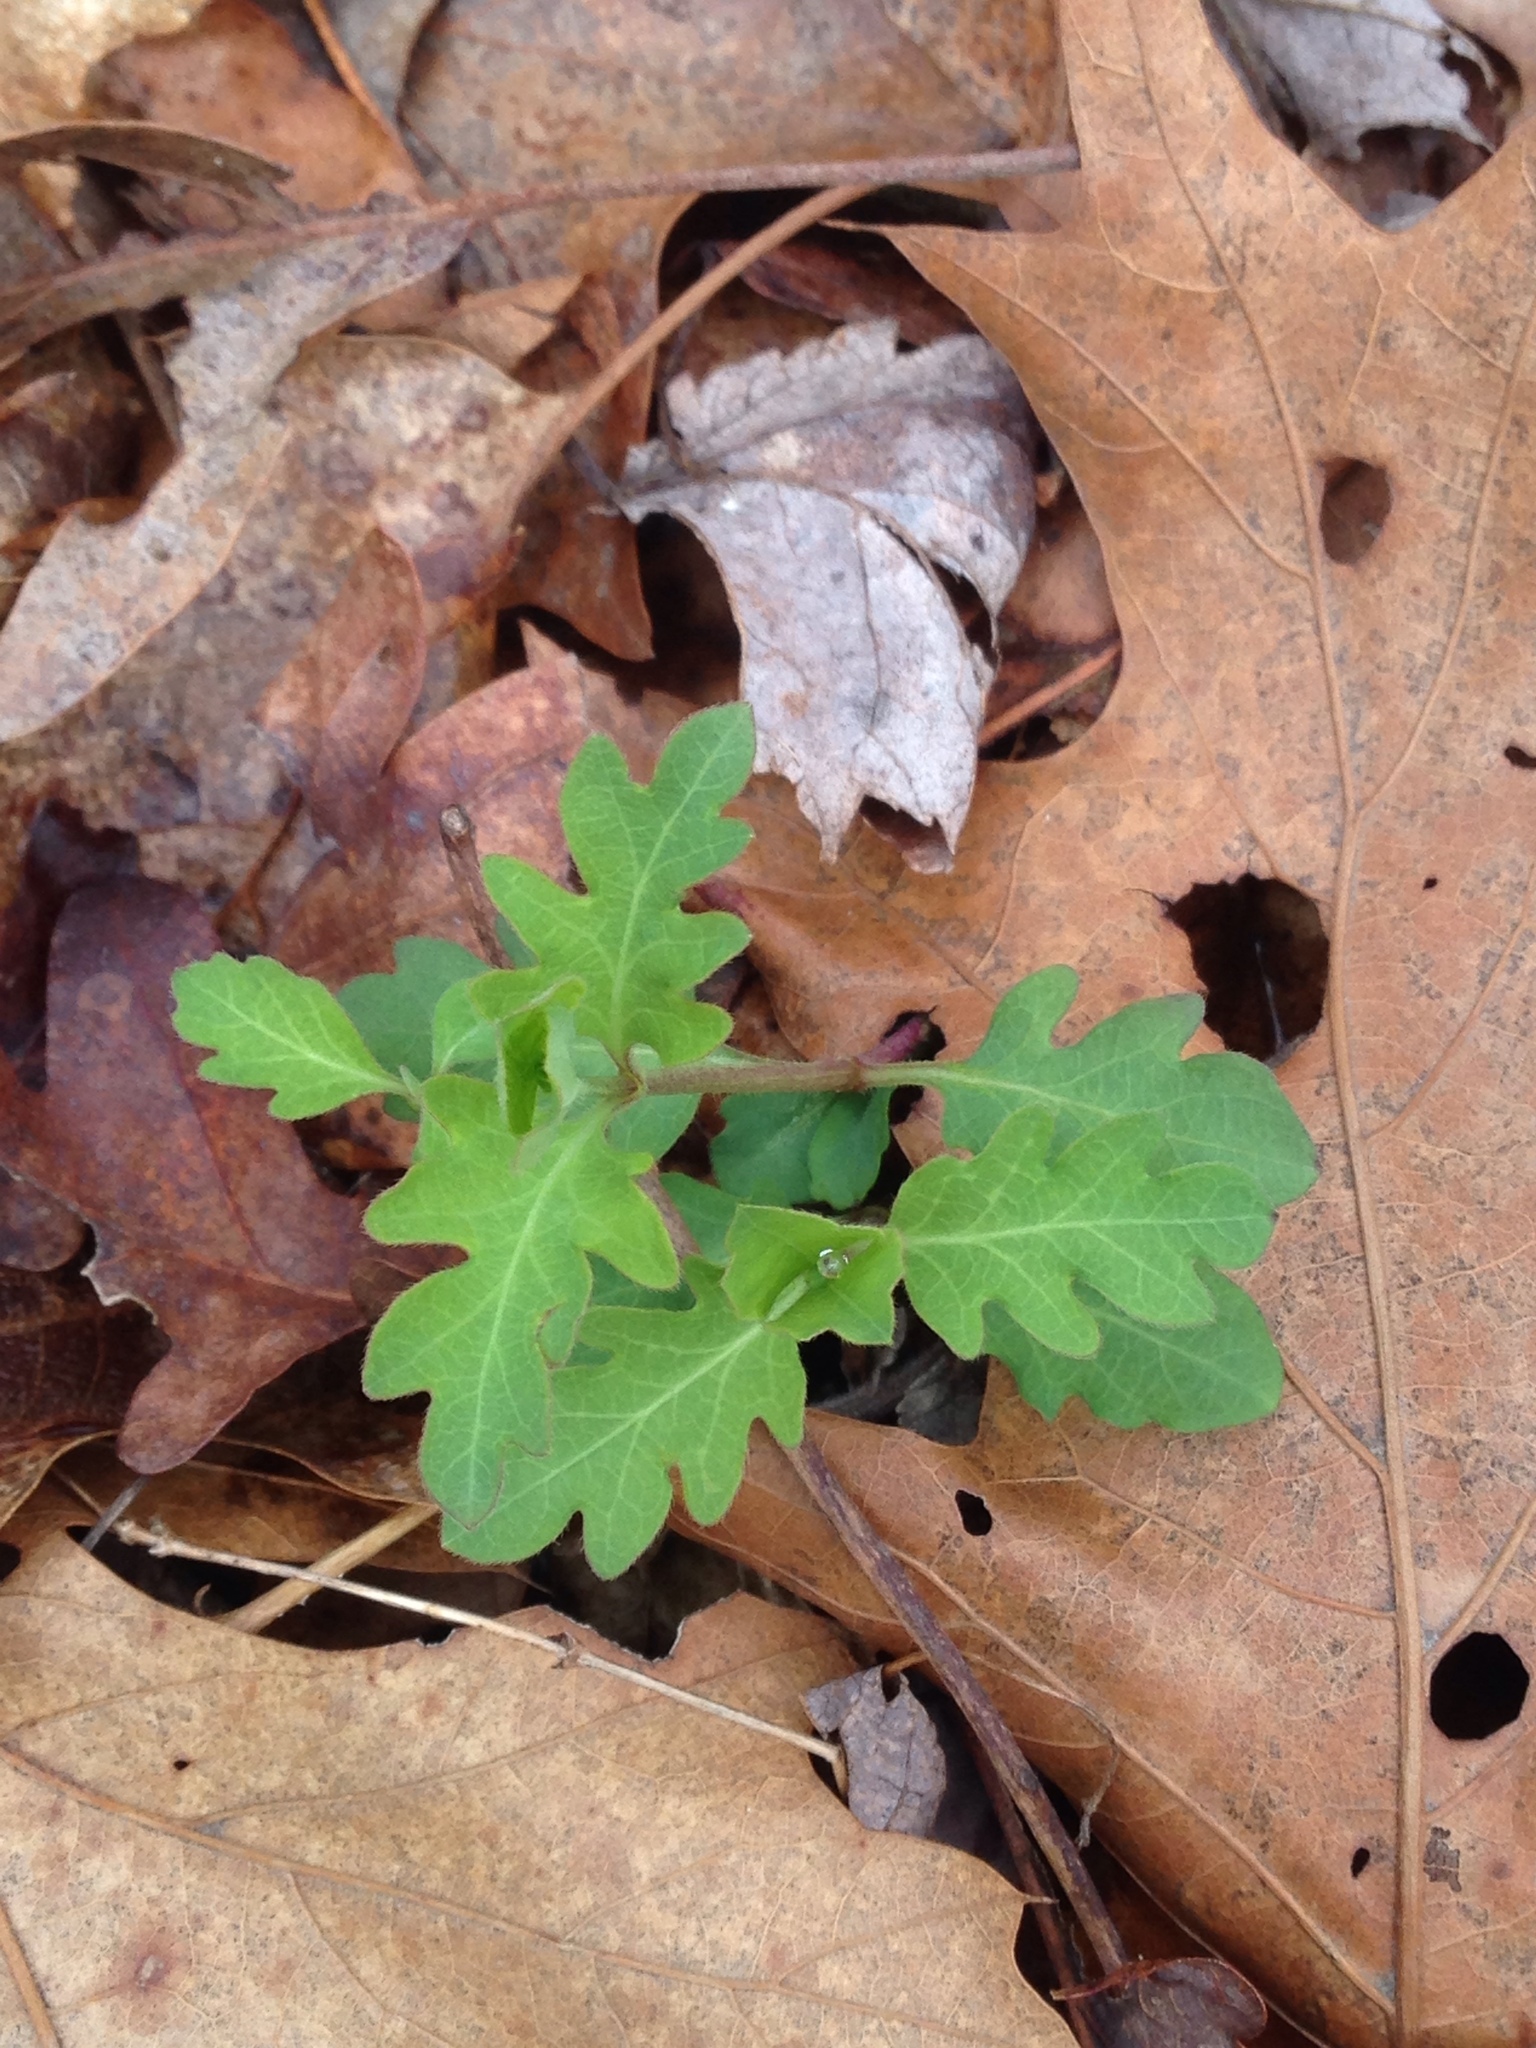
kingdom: Plantae
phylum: Tracheophyta
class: Magnoliopsida
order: Dipsacales
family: Caprifoliaceae
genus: Lonicera
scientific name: Lonicera japonica
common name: Japanese honeysuckle
